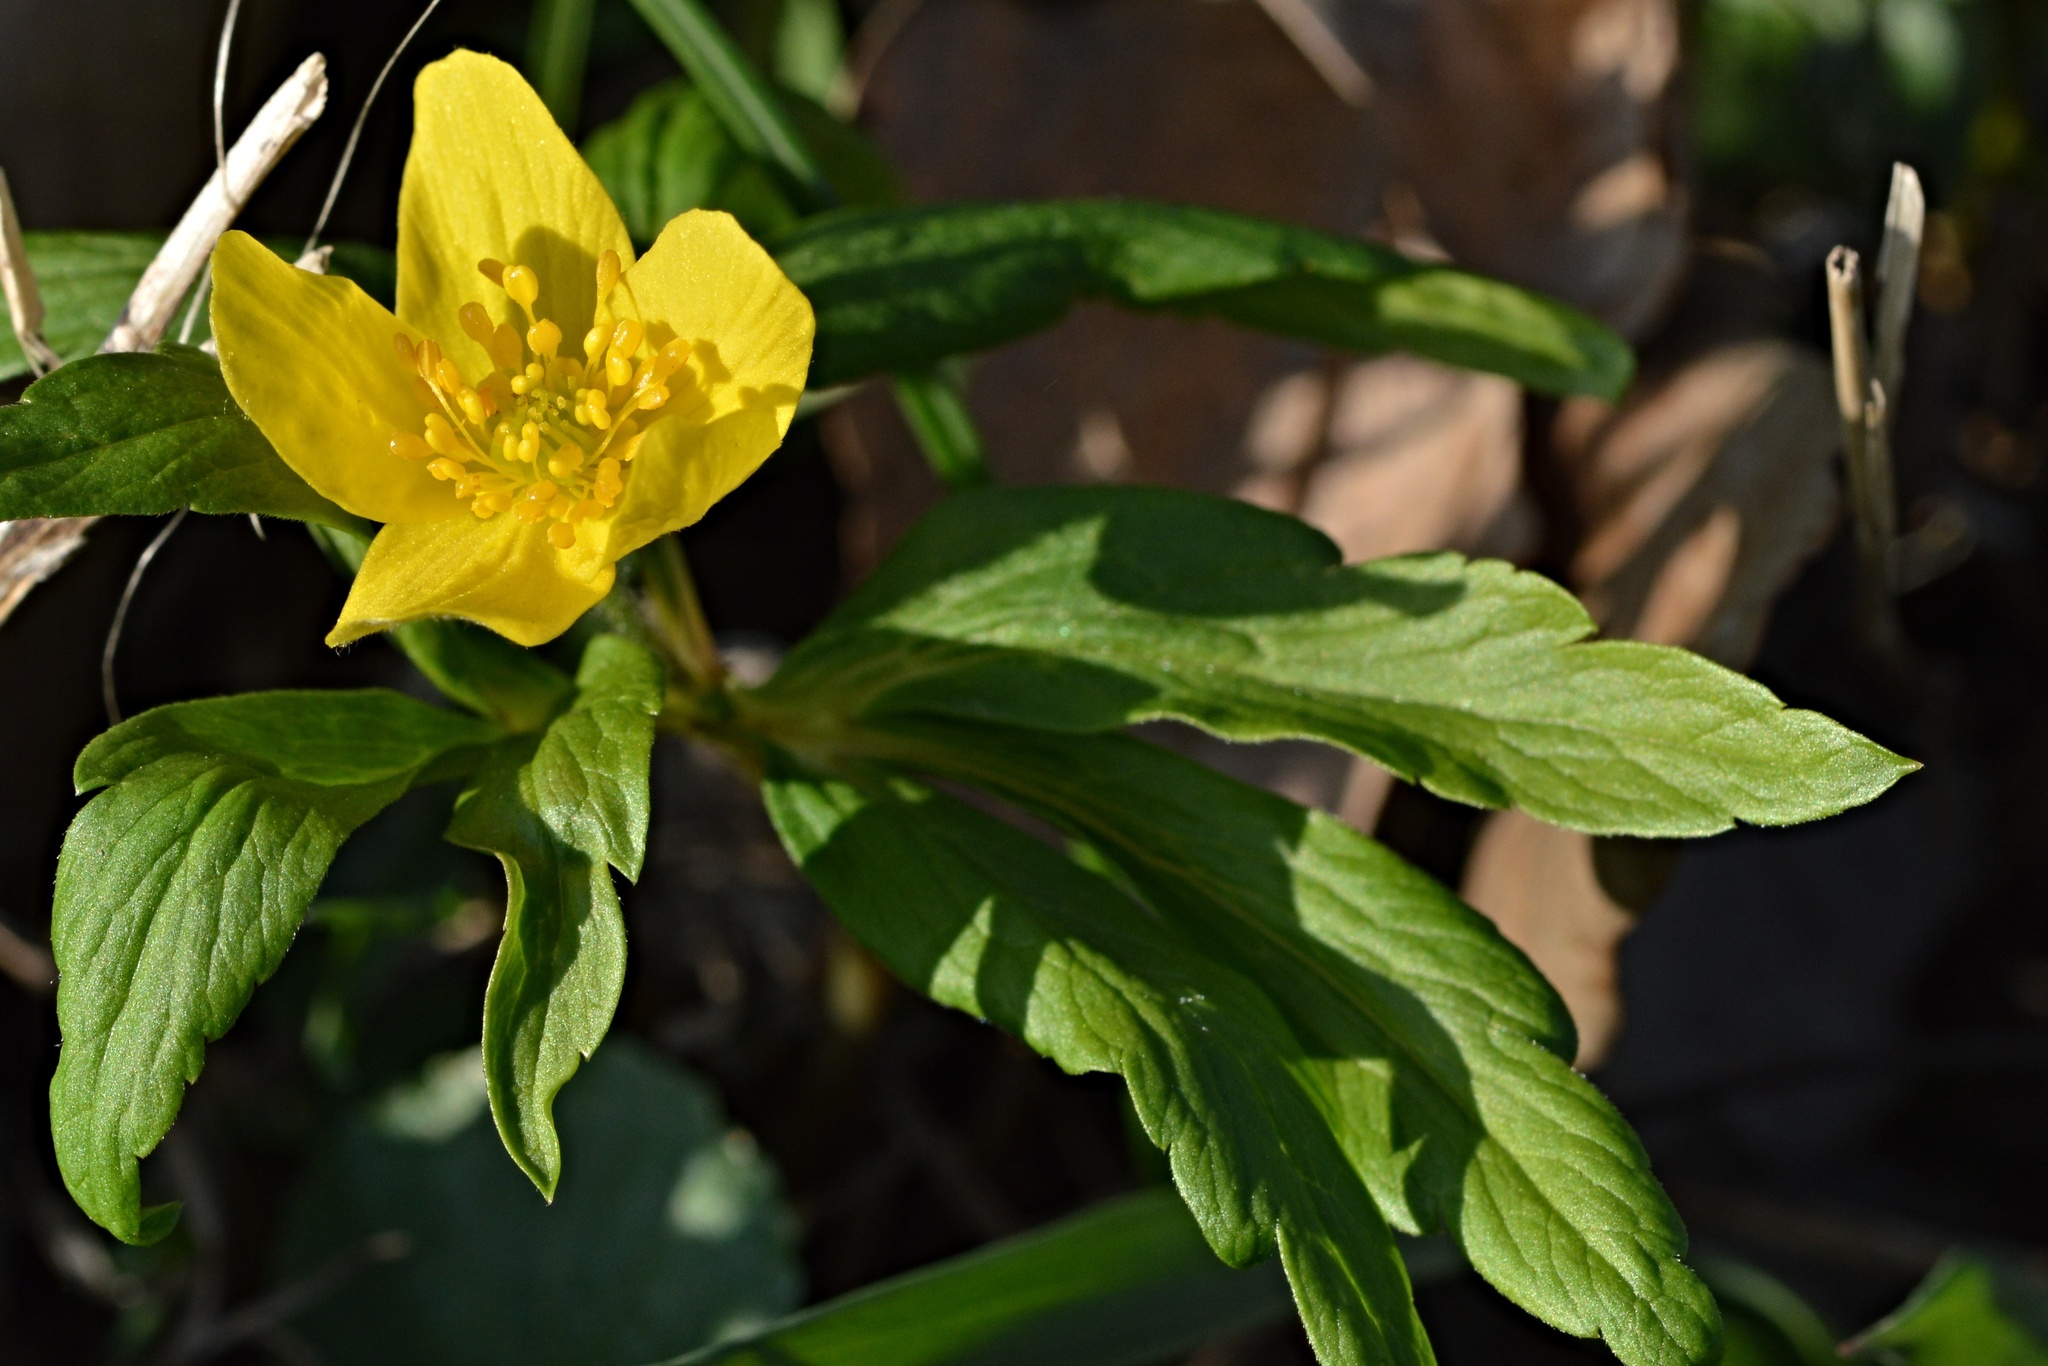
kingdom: Plantae
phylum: Tracheophyta
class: Magnoliopsida
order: Ranunculales
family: Ranunculaceae
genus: Anemone
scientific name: Anemone ranunculoides
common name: Yellow anemone
